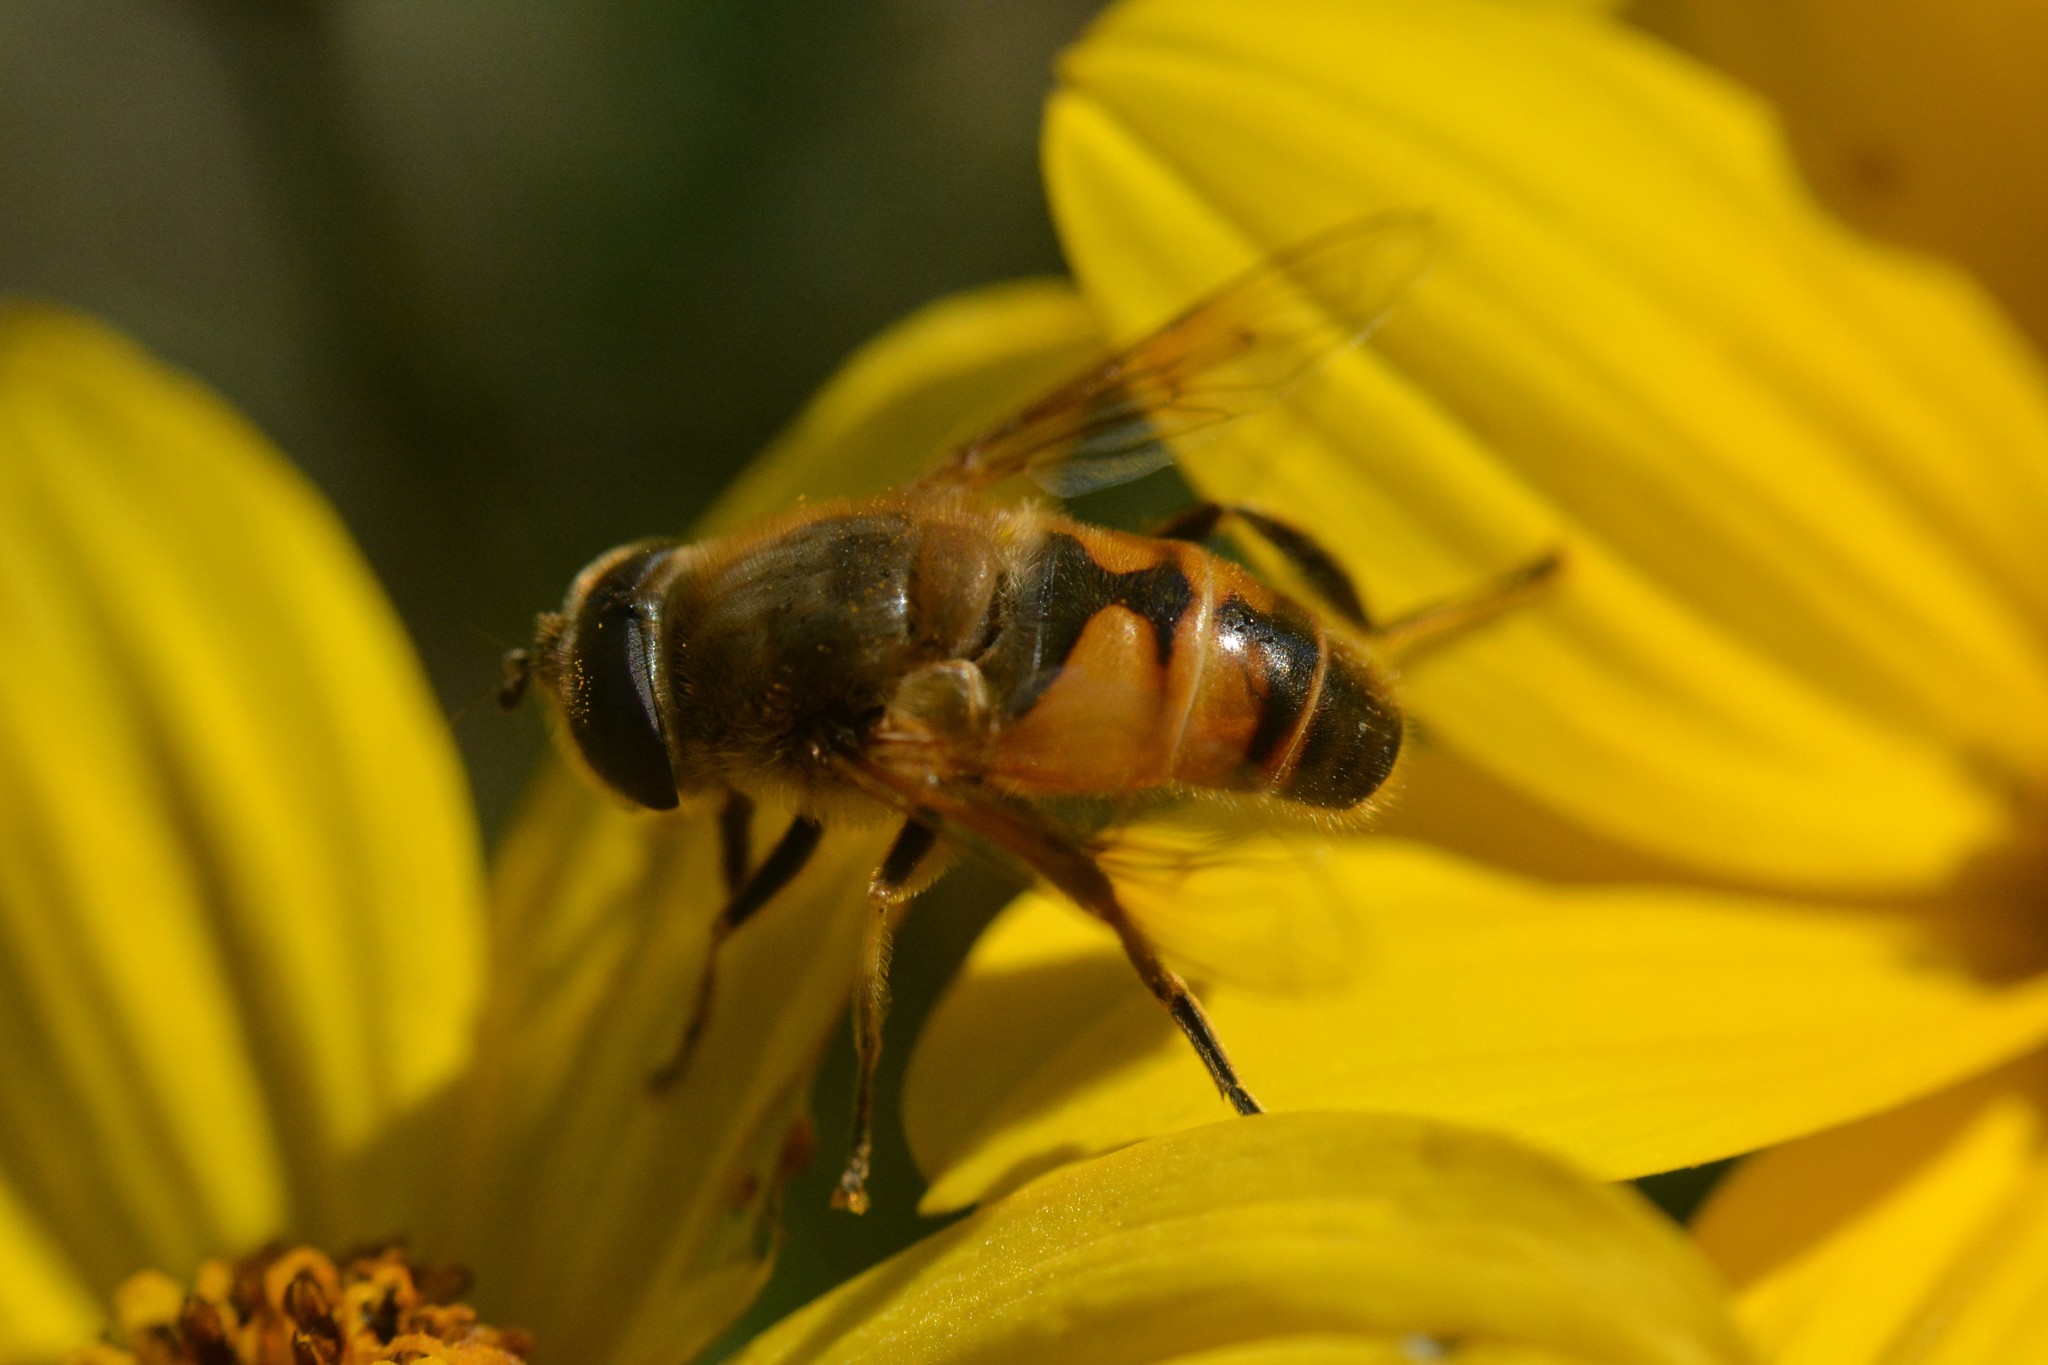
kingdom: Animalia
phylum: Arthropoda
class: Insecta
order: Diptera
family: Syrphidae
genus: Eristalis
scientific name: Eristalis tenax
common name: Drone fly
